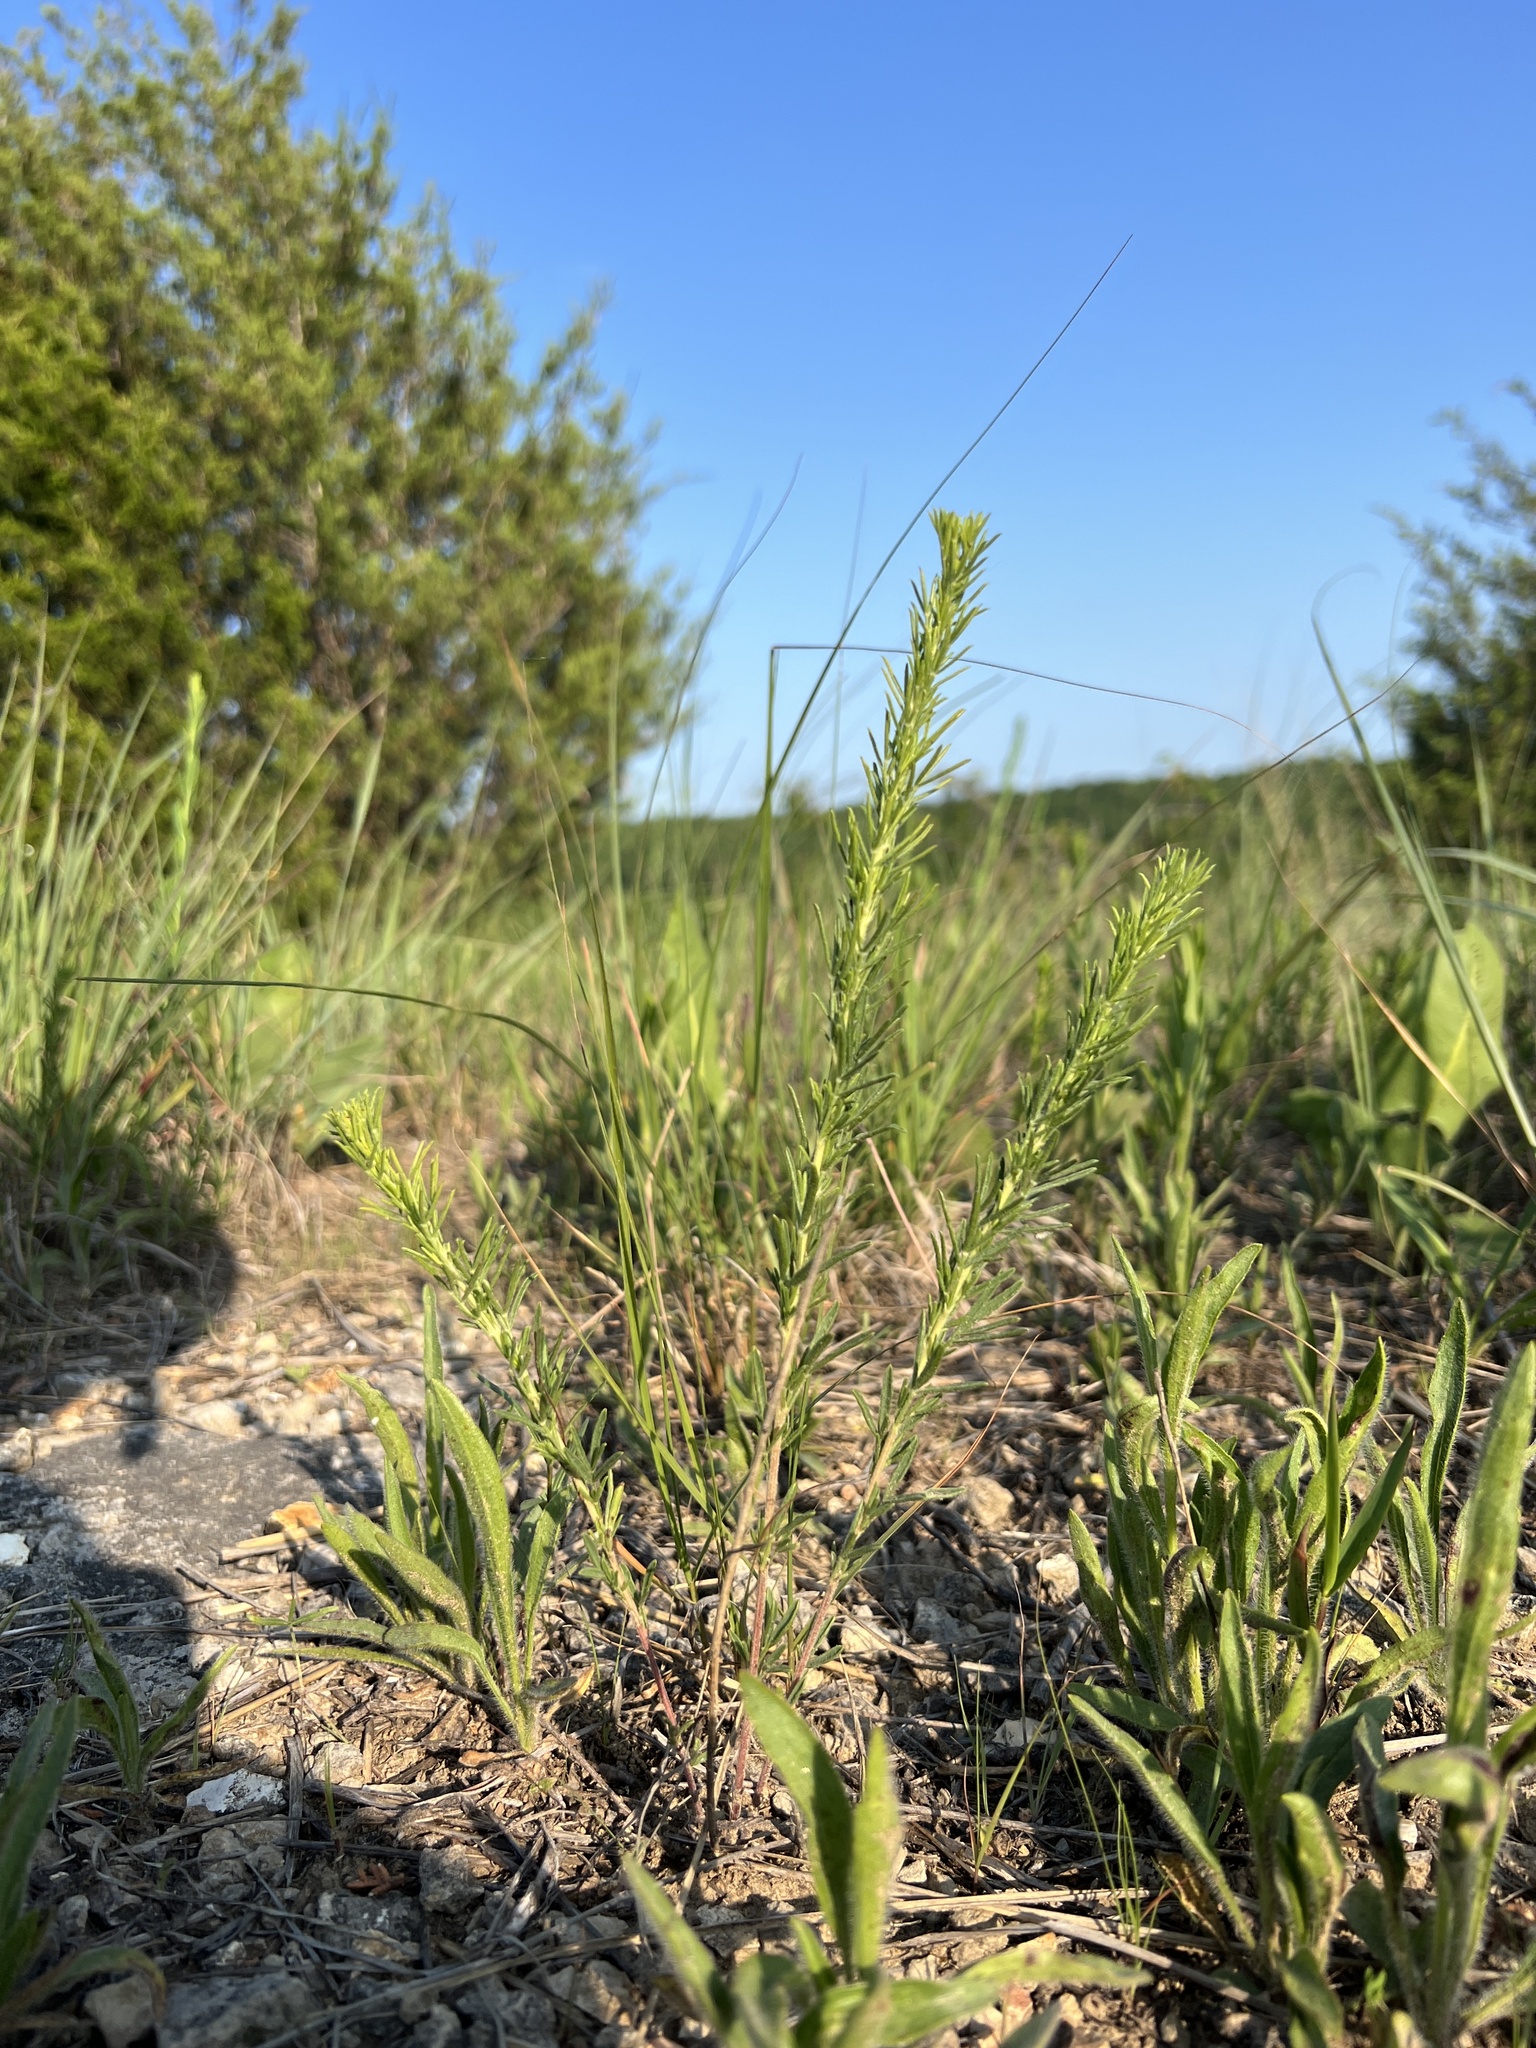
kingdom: Plantae
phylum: Tracheophyta
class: Magnoliopsida
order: Fabales
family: Fabaceae
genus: Dalea
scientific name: Dalea purpurea
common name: Purple prairie-clover
